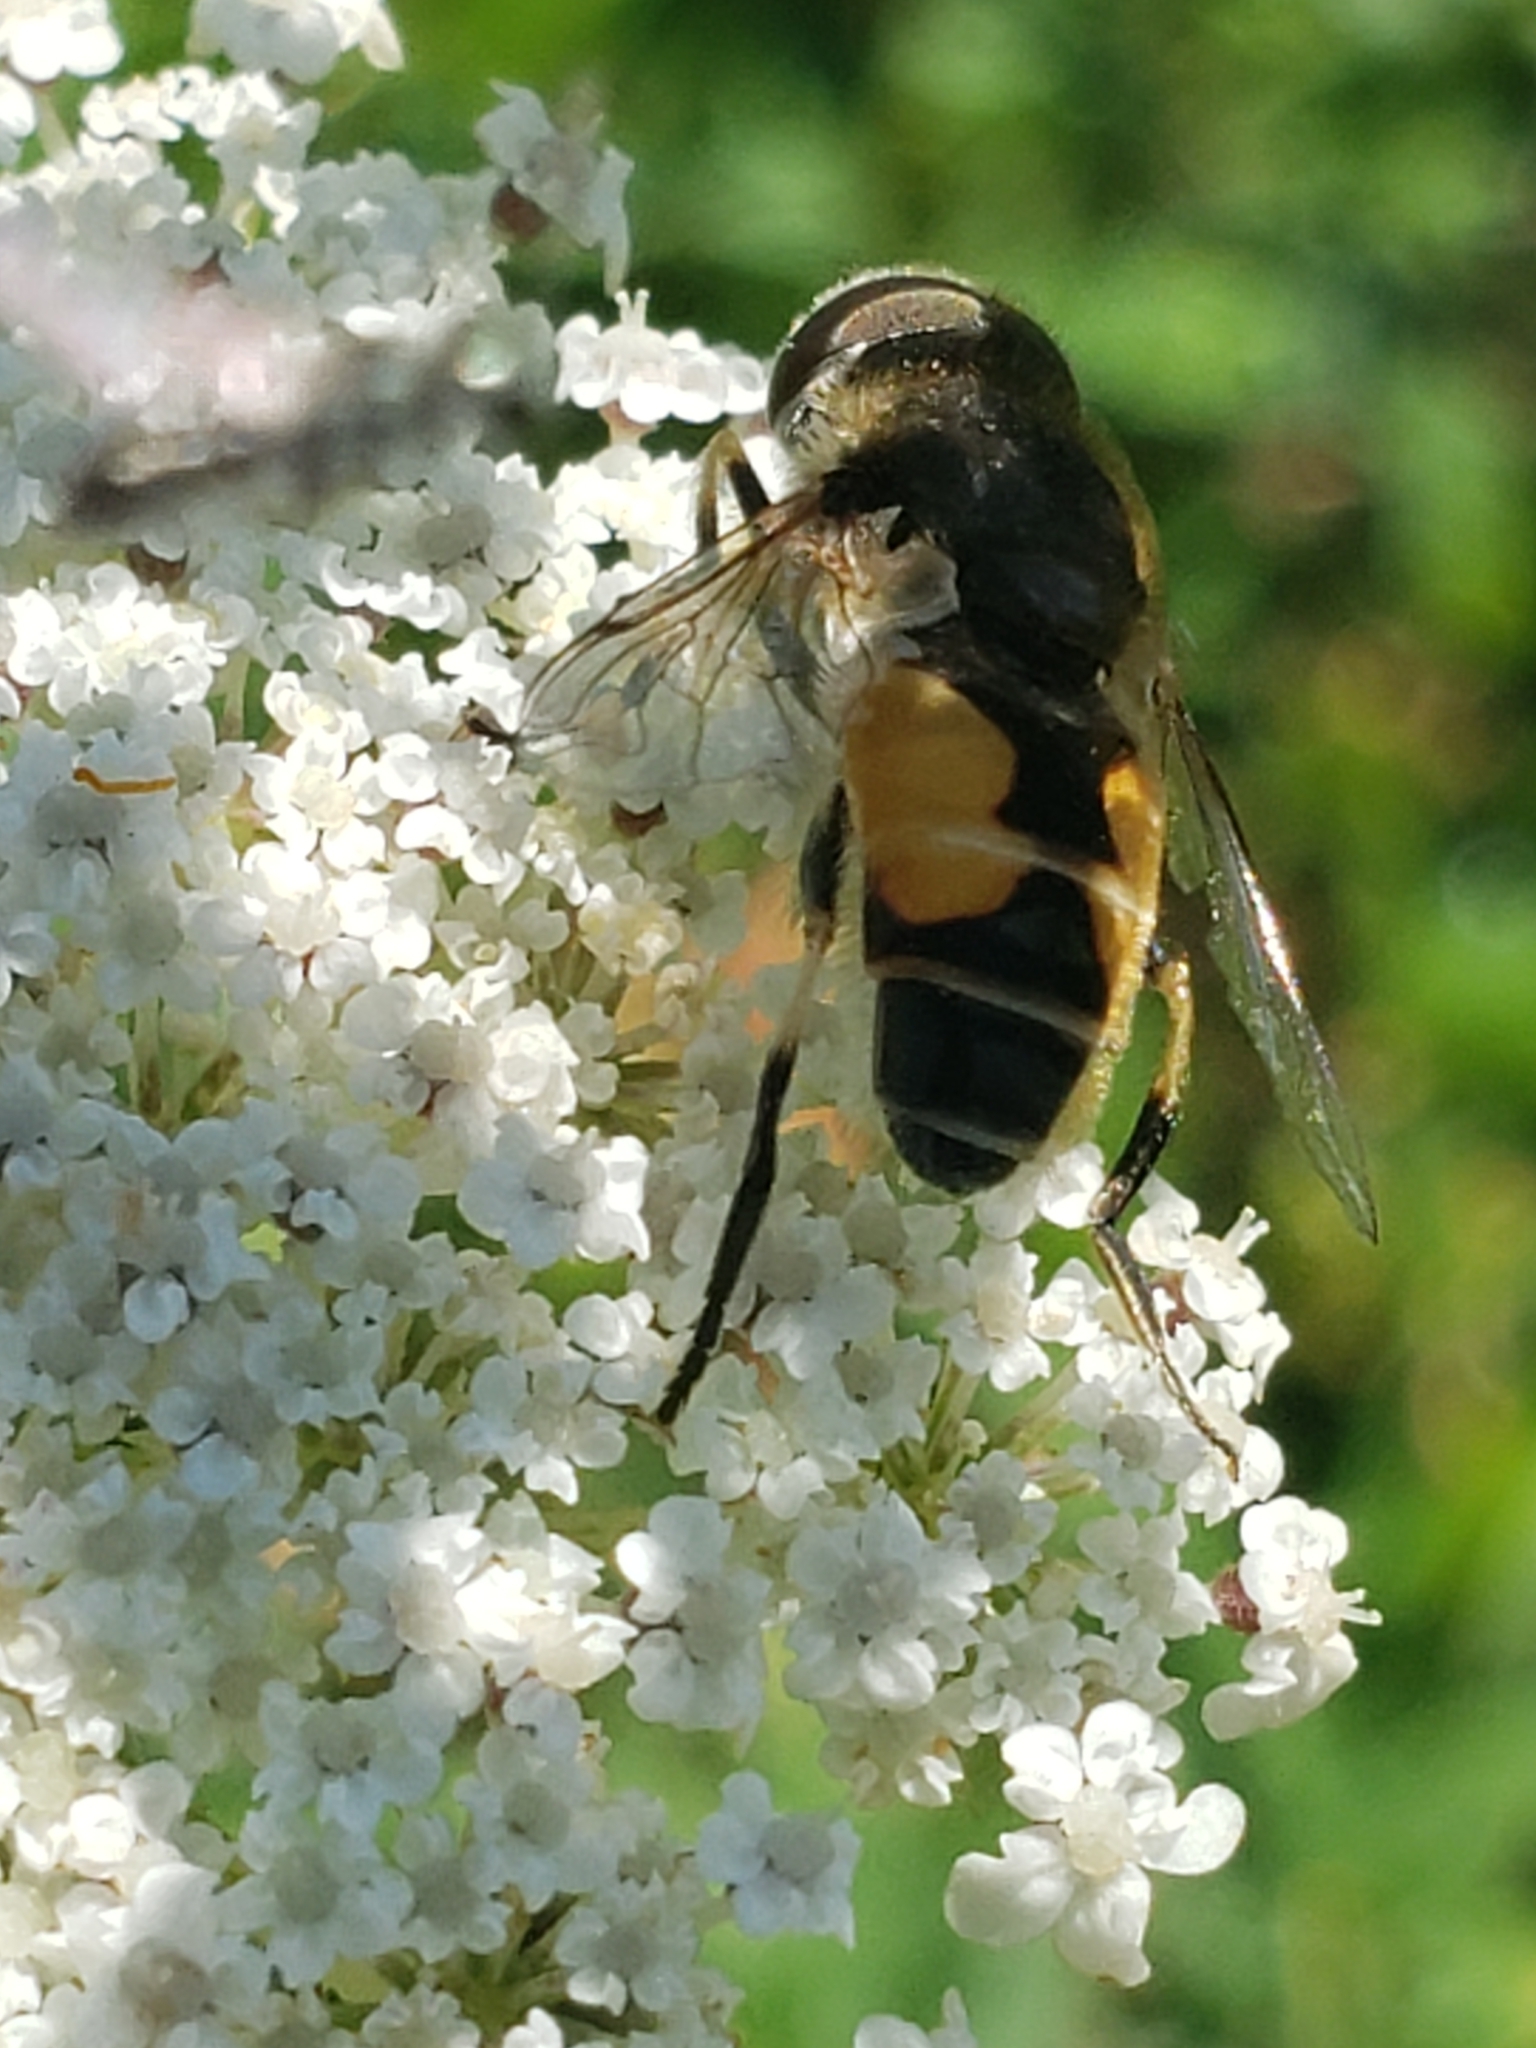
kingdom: Animalia
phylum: Arthropoda
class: Insecta
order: Diptera
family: Syrphidae
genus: Eristalis
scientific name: Eristalis arbustorum
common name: Hover fly
